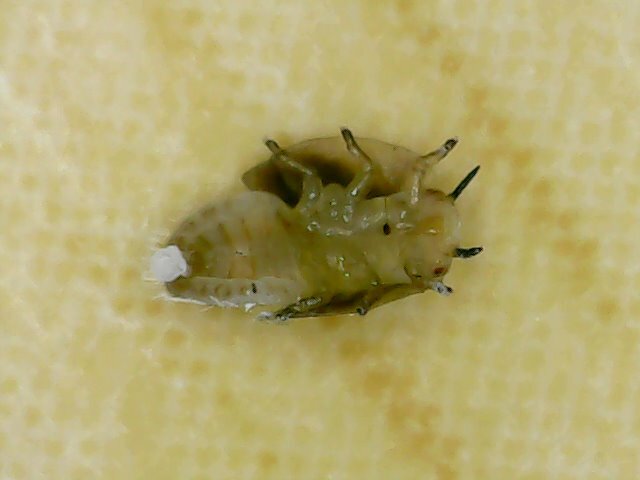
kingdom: Animalia
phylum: Arthropoda
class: Insecta
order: Hemiptera
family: Liviidae
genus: Diaphorina
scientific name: Diaphorina citri
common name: Asian citrus psyllid
